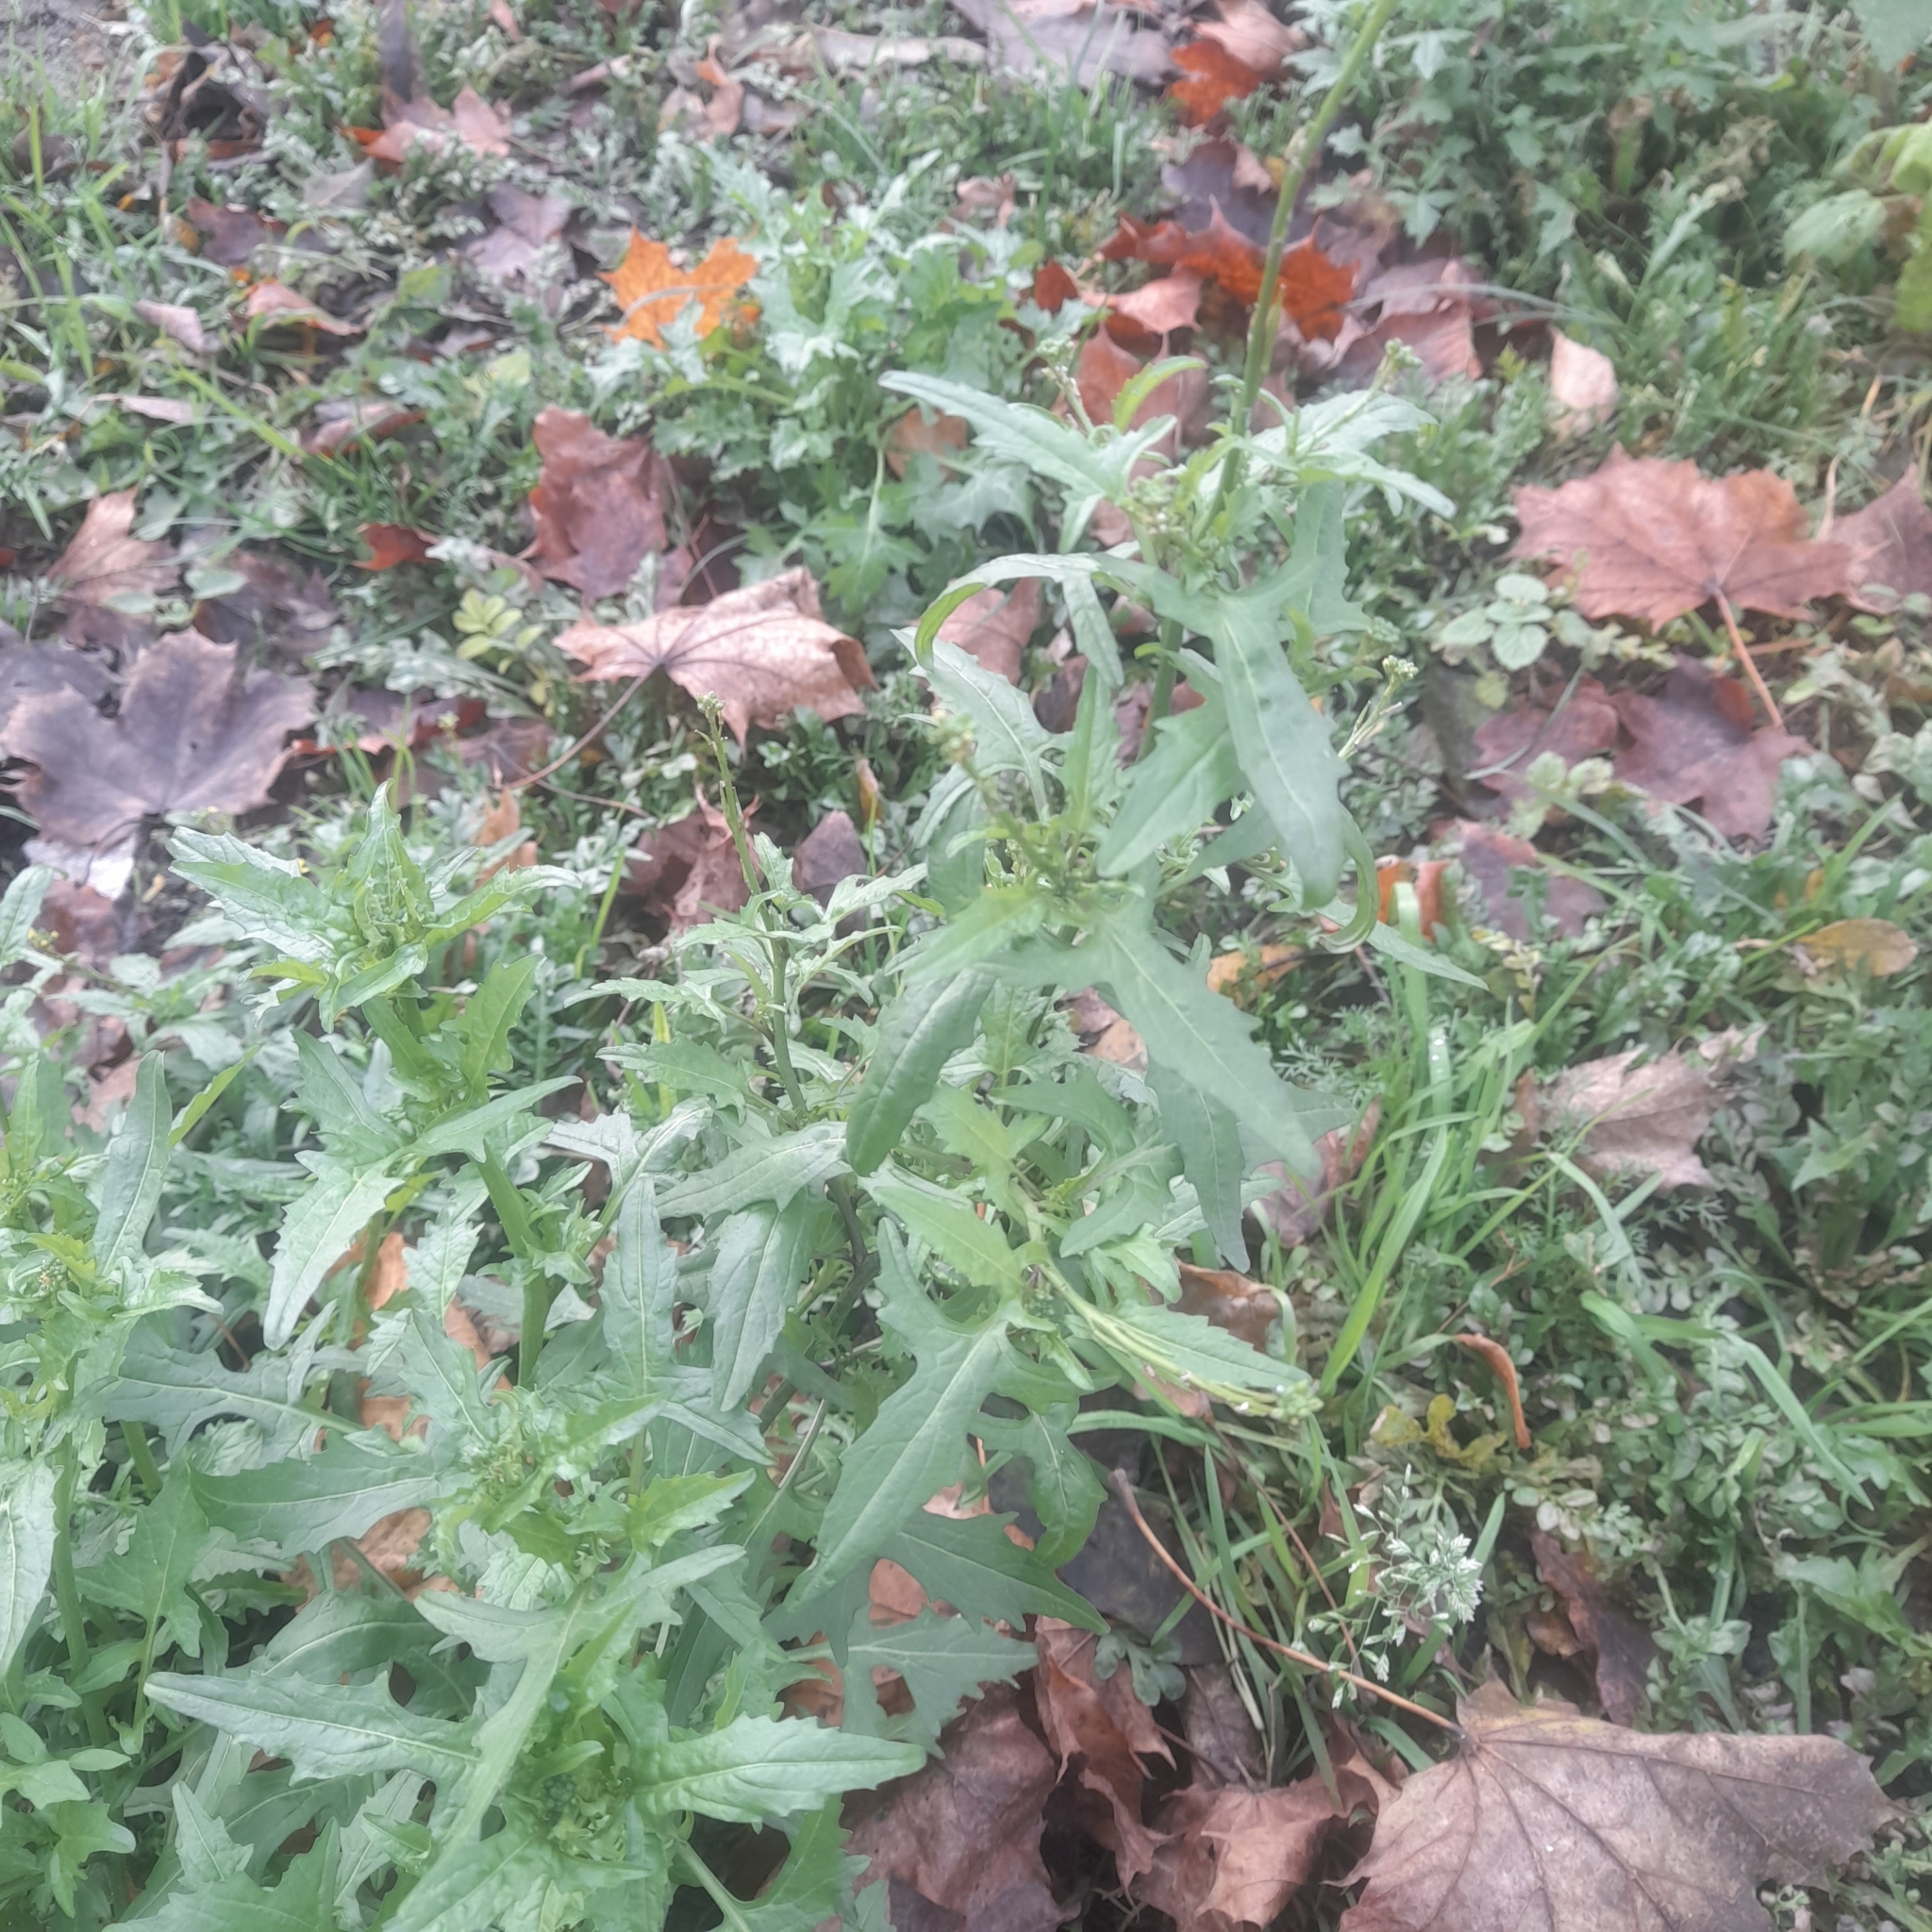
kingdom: Plantae
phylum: Tracheophyta
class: Magnoliopsida
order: Brassicales
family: Brassicaceae
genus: Sisymbrium
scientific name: Sisymbrium officinale
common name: Hedge mustard
